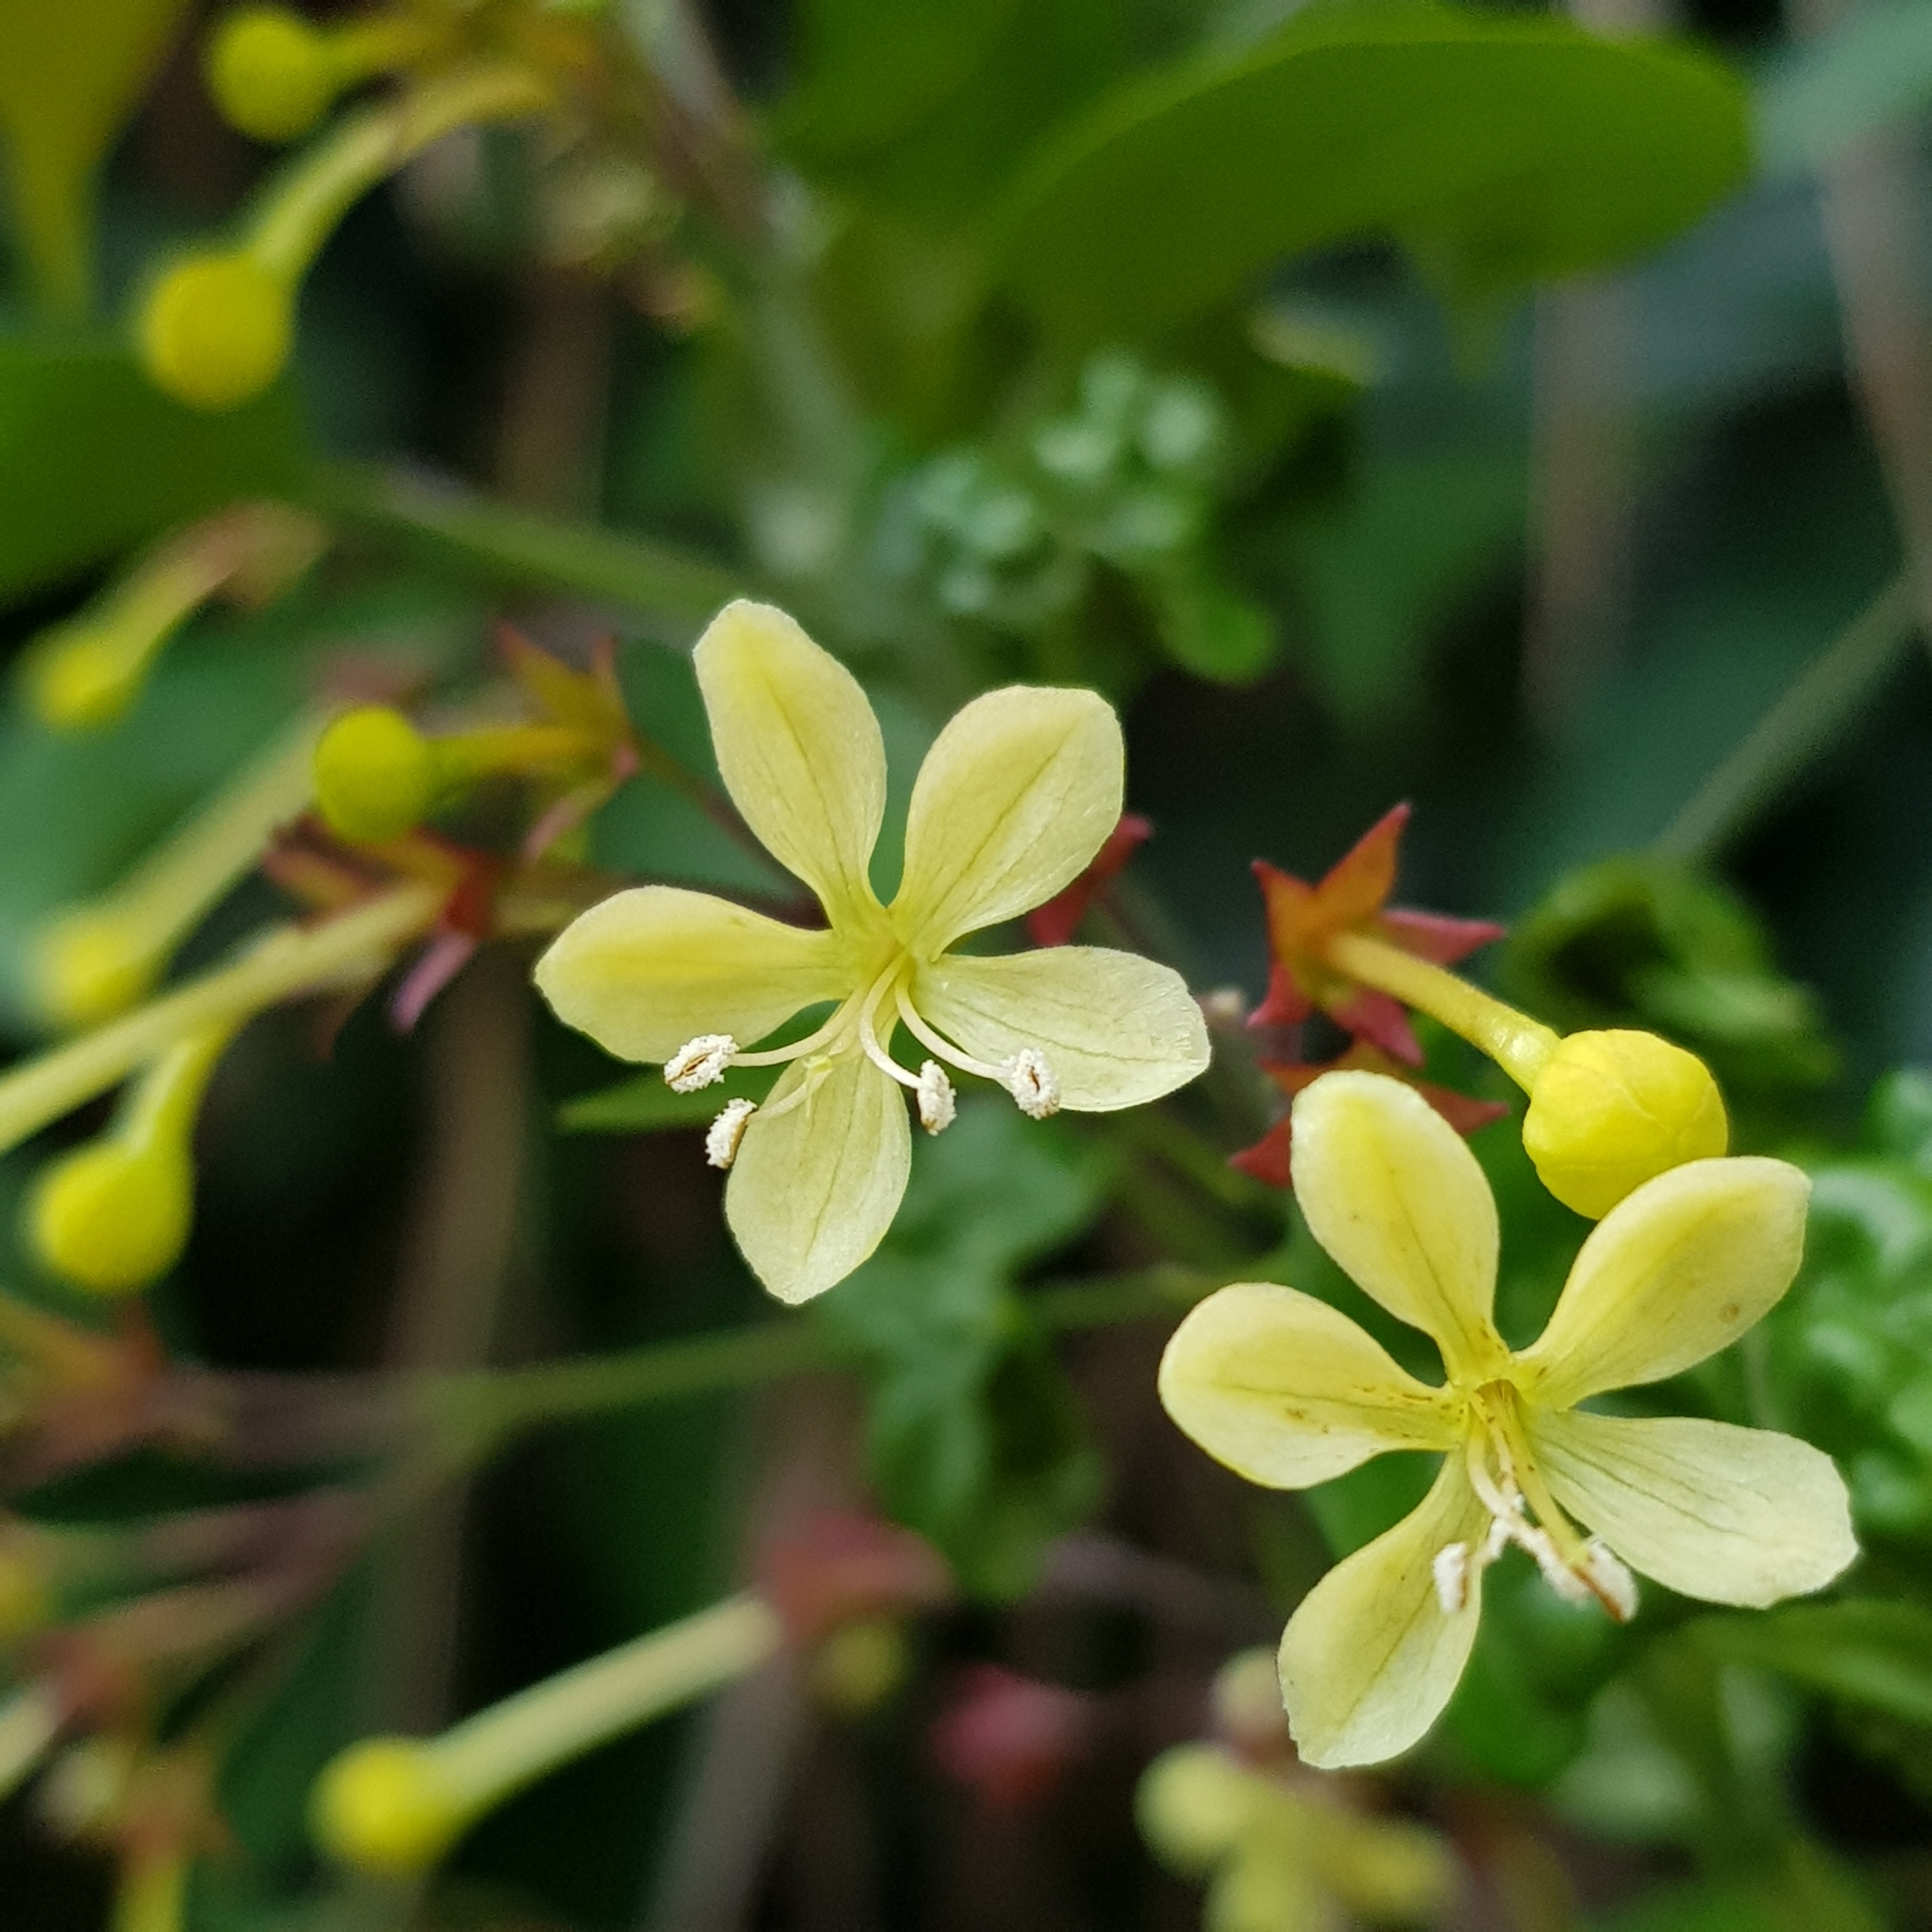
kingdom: Plantae
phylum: Tracheophyta
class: Magnoliopsida
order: Lamiales
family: Lamiaceae
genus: Clerodendrum
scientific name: Clerodendrum disparifolium
